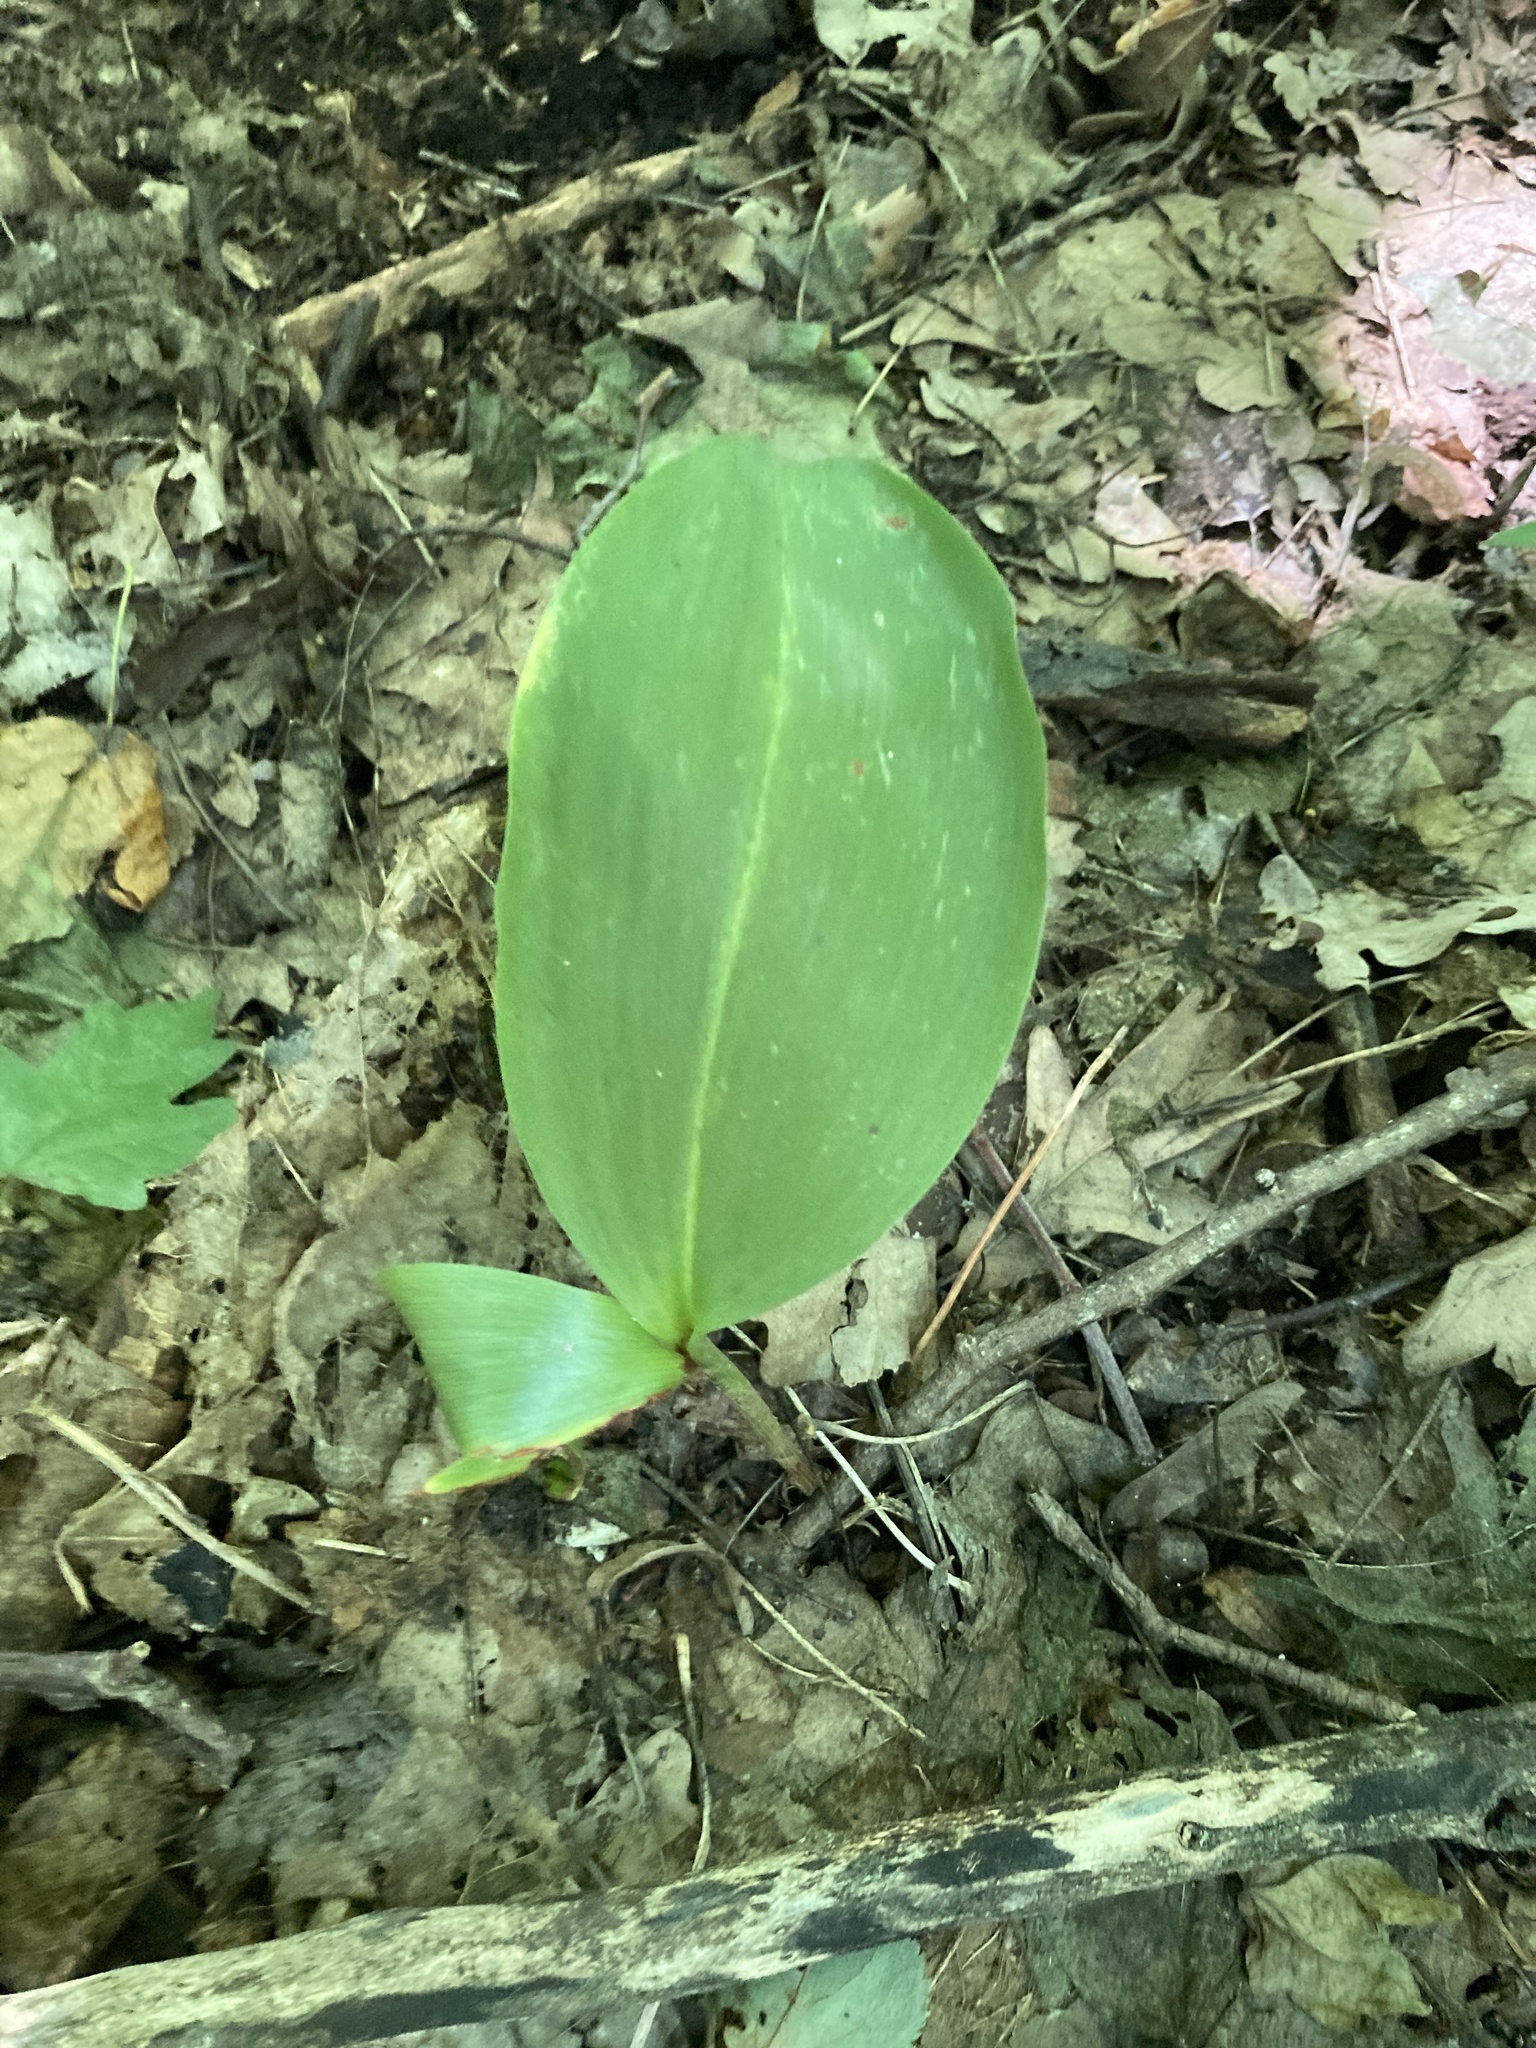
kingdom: Plantae
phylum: Tracheophyta
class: Liliopsida
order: Asparagales
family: Asparagaceae
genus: Convallaria
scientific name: Convallaria majalis
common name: Lily-of-the-valley
